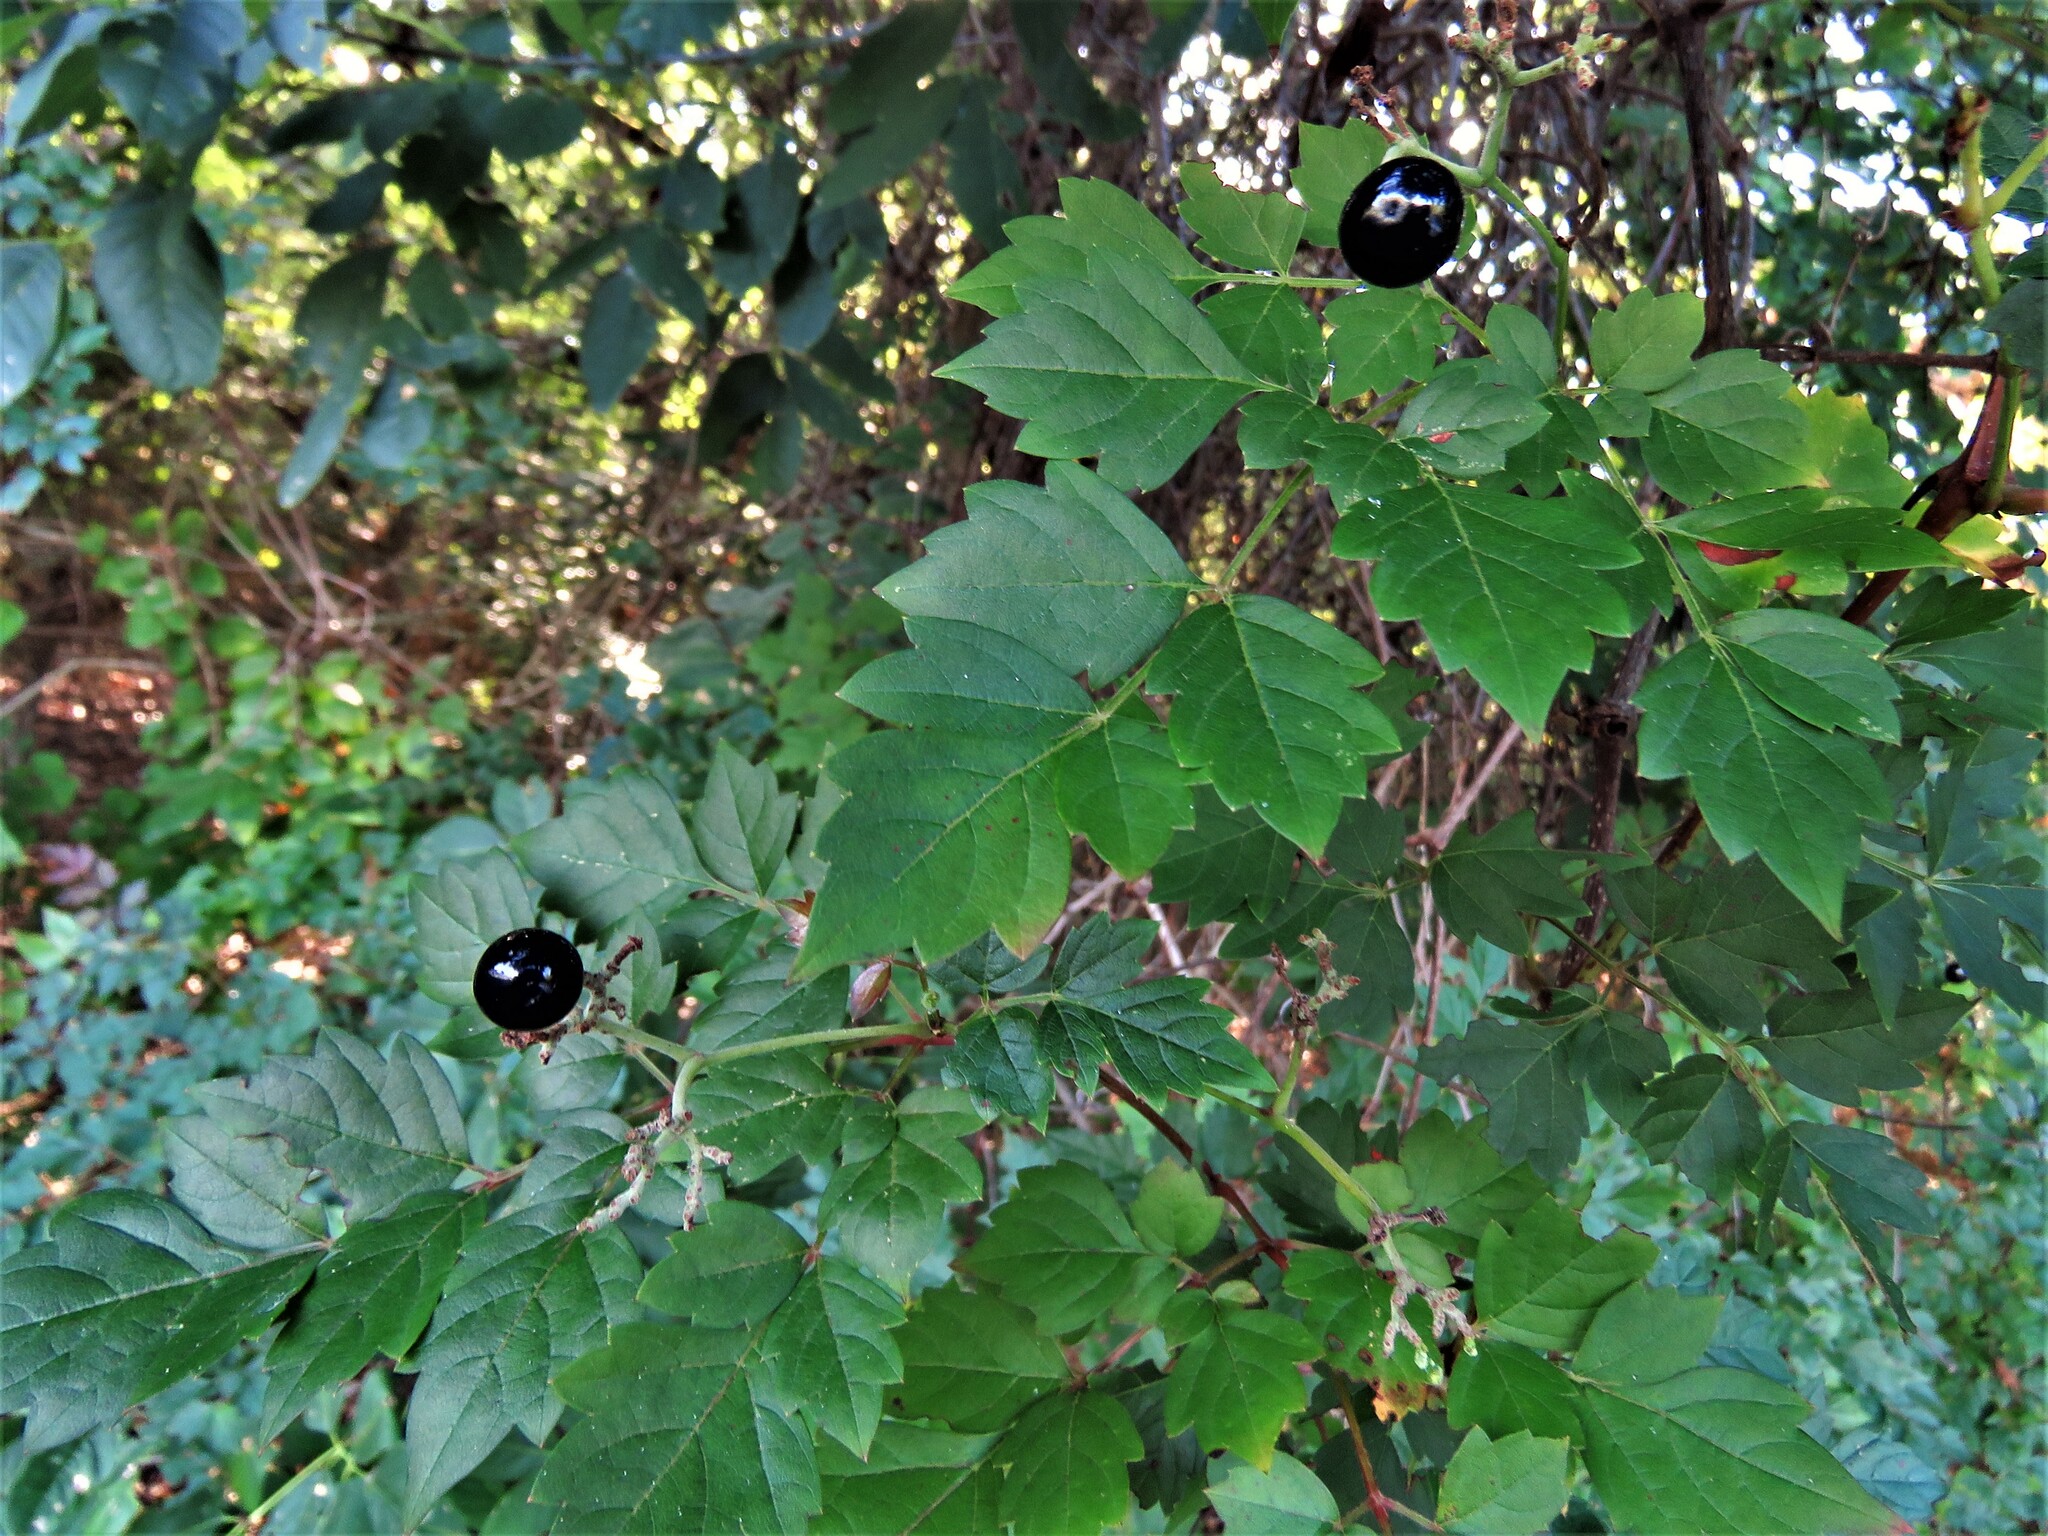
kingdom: Plantae
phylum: Tracheophyta
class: Magnoliopsida
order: Vitales
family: Vitaceae
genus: Nekemias
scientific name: Nekemias arborea
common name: Peppervine
